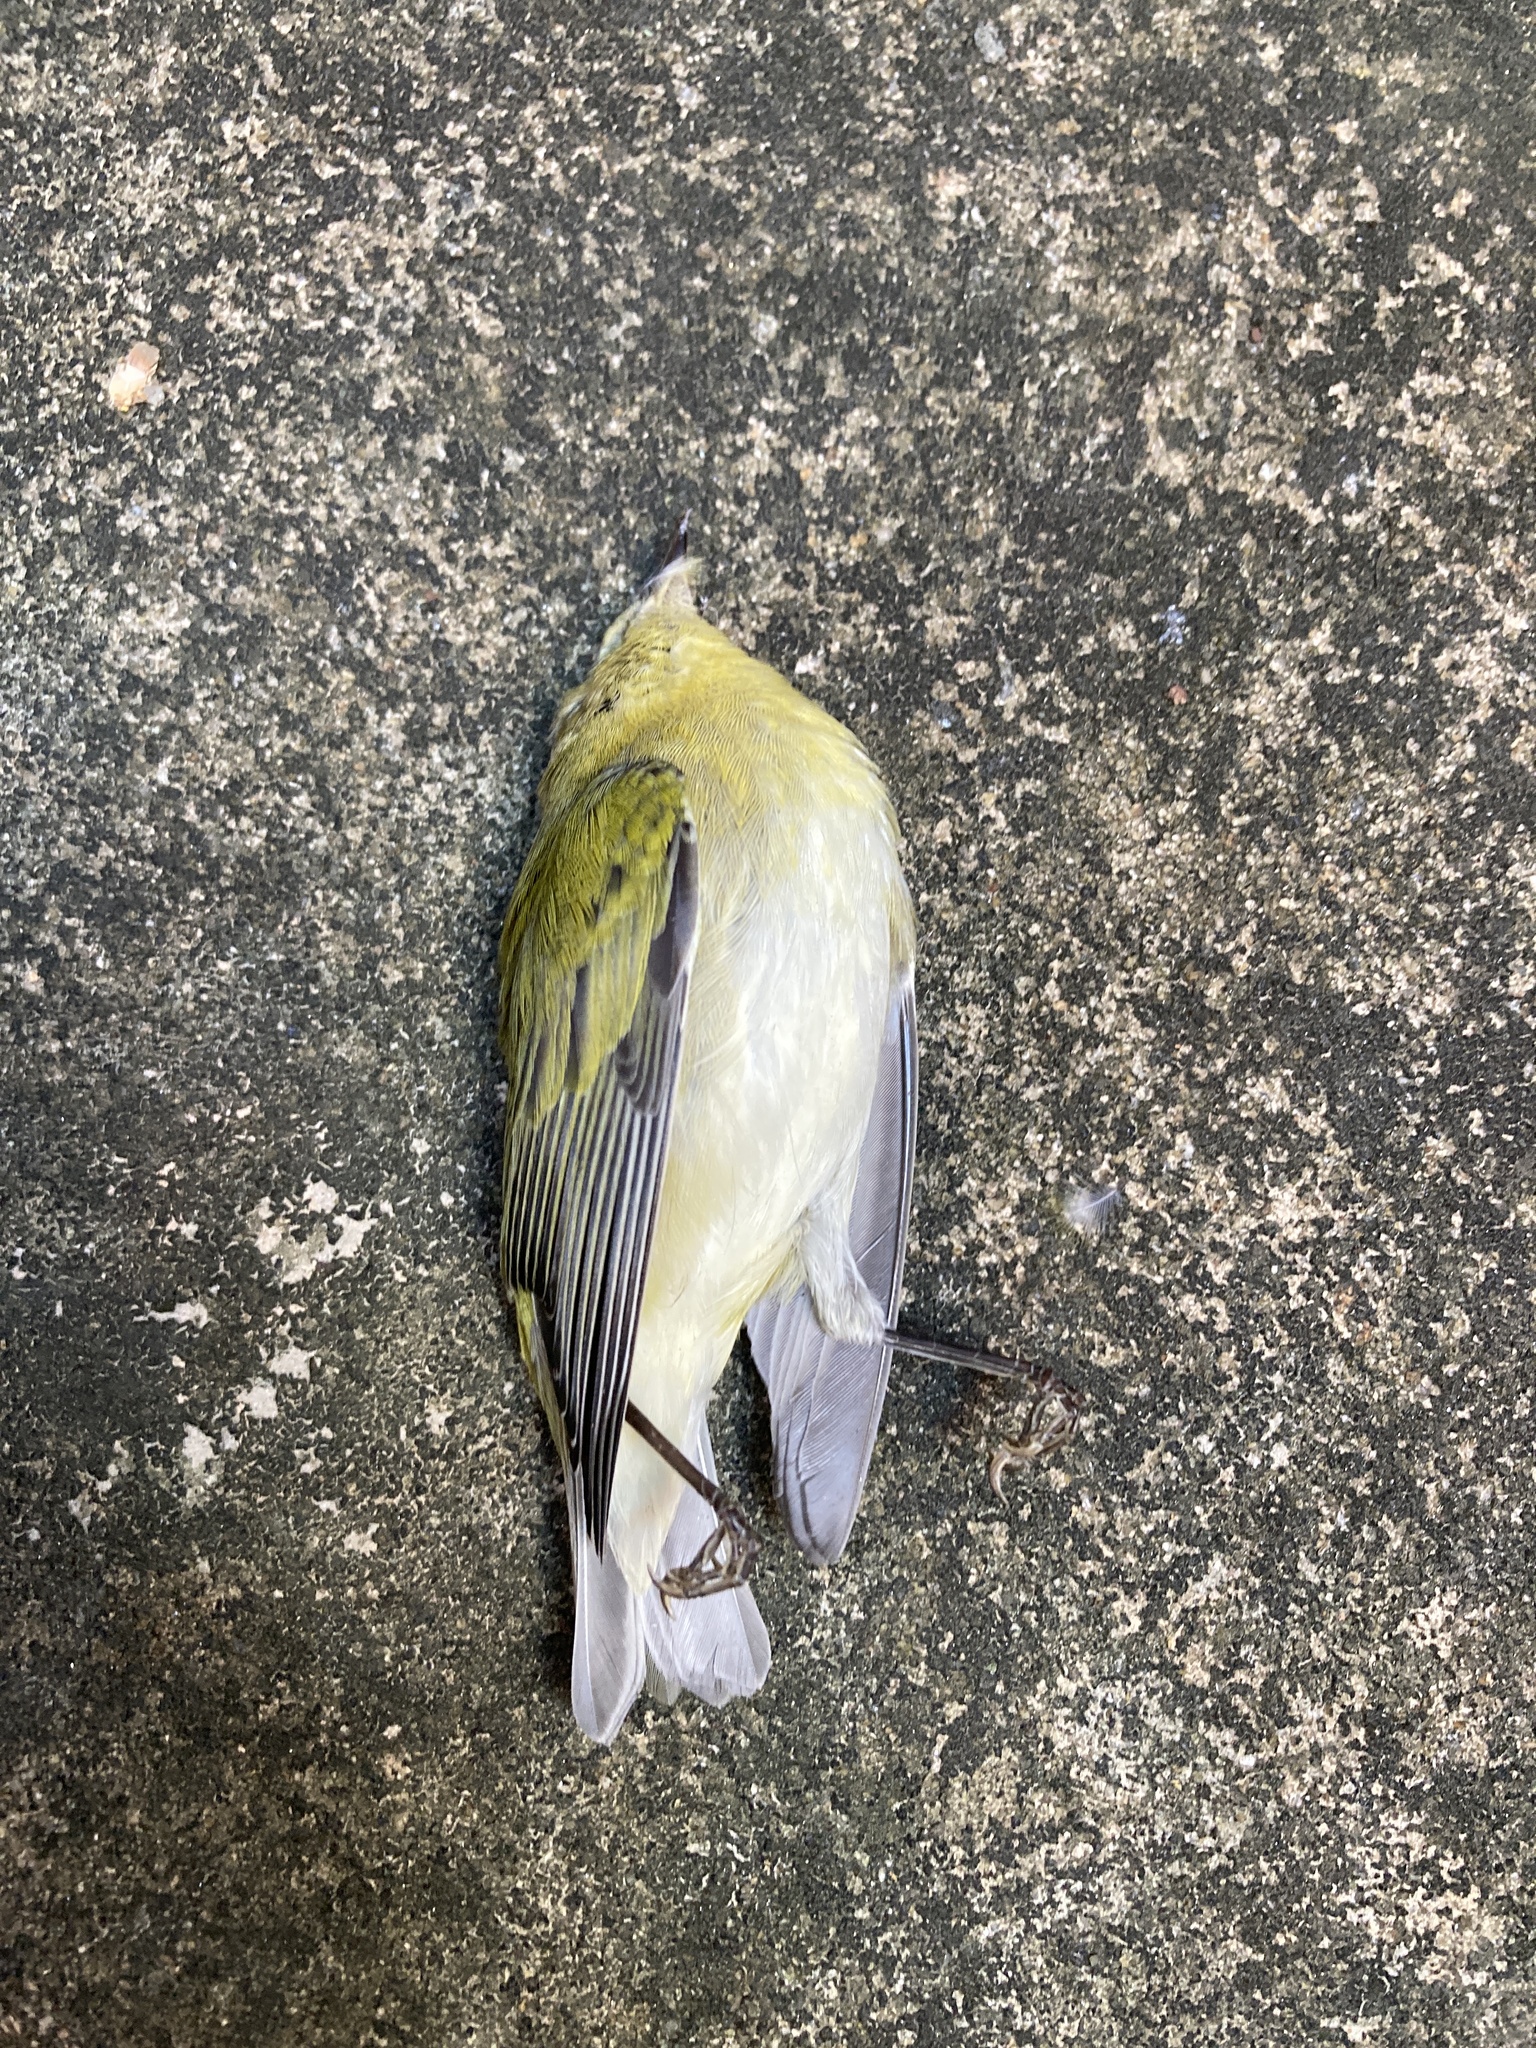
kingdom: Animalia
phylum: Chordata
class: Aves
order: Passeriformes
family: Parulidae
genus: Leiothlypis
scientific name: Leiothlypis peregrina
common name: Tennessee warbler
